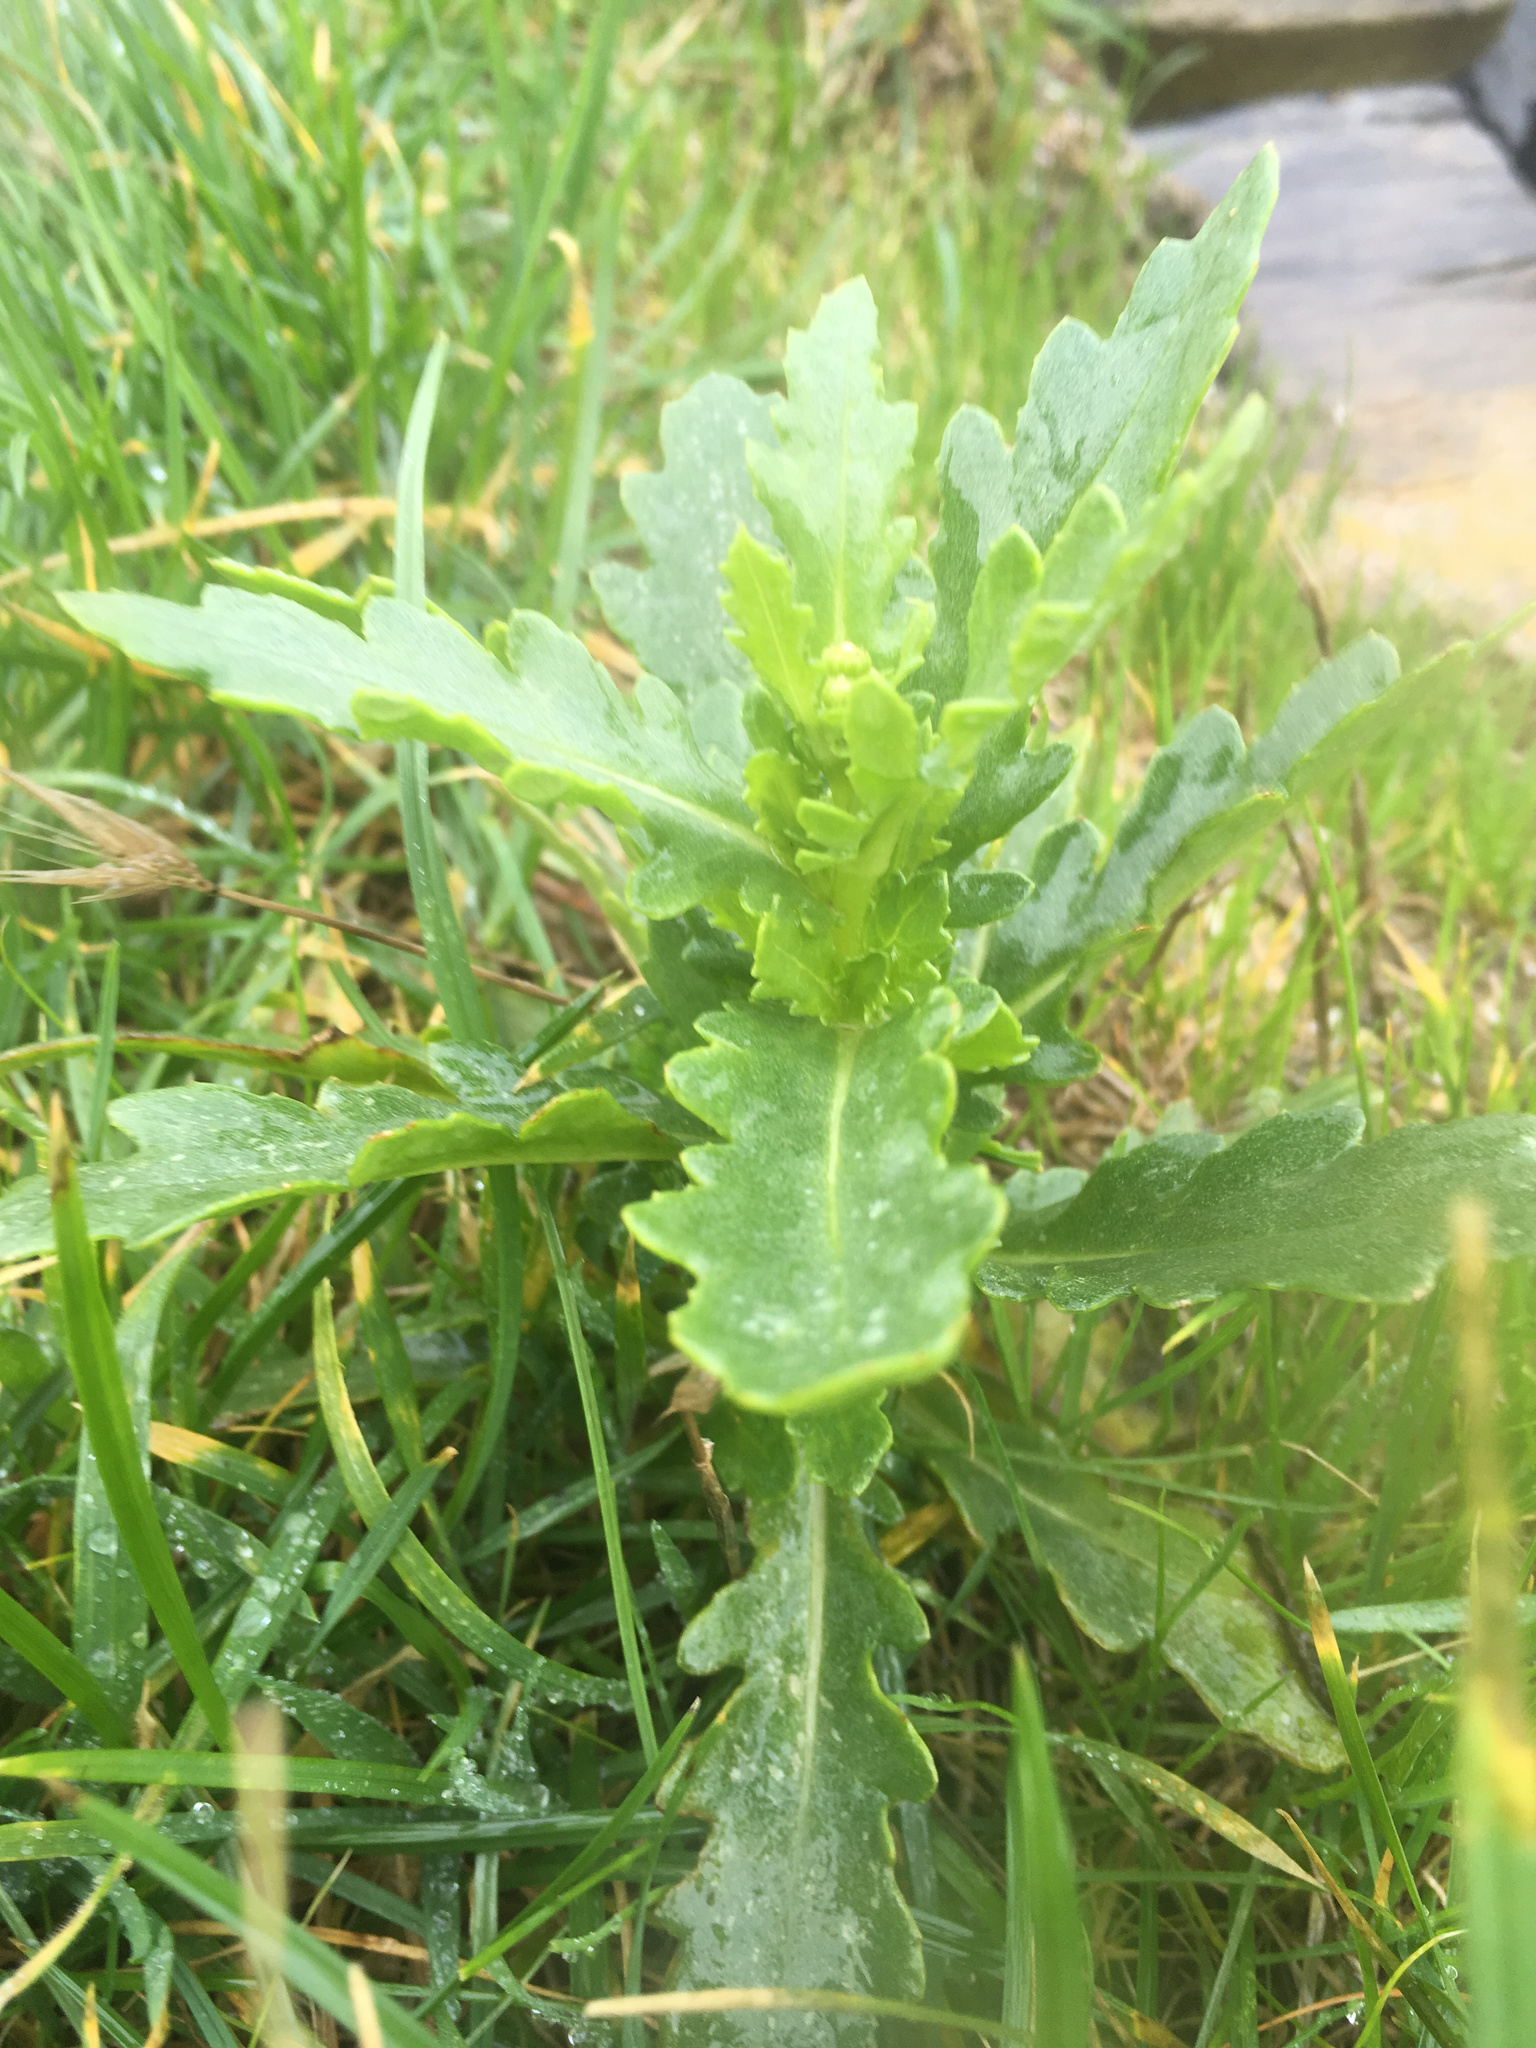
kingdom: Plantae
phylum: Tracheophyta
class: Magnoliopsida
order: Asterales
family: Asteraceae
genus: Senecio
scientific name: Senecio matatini
